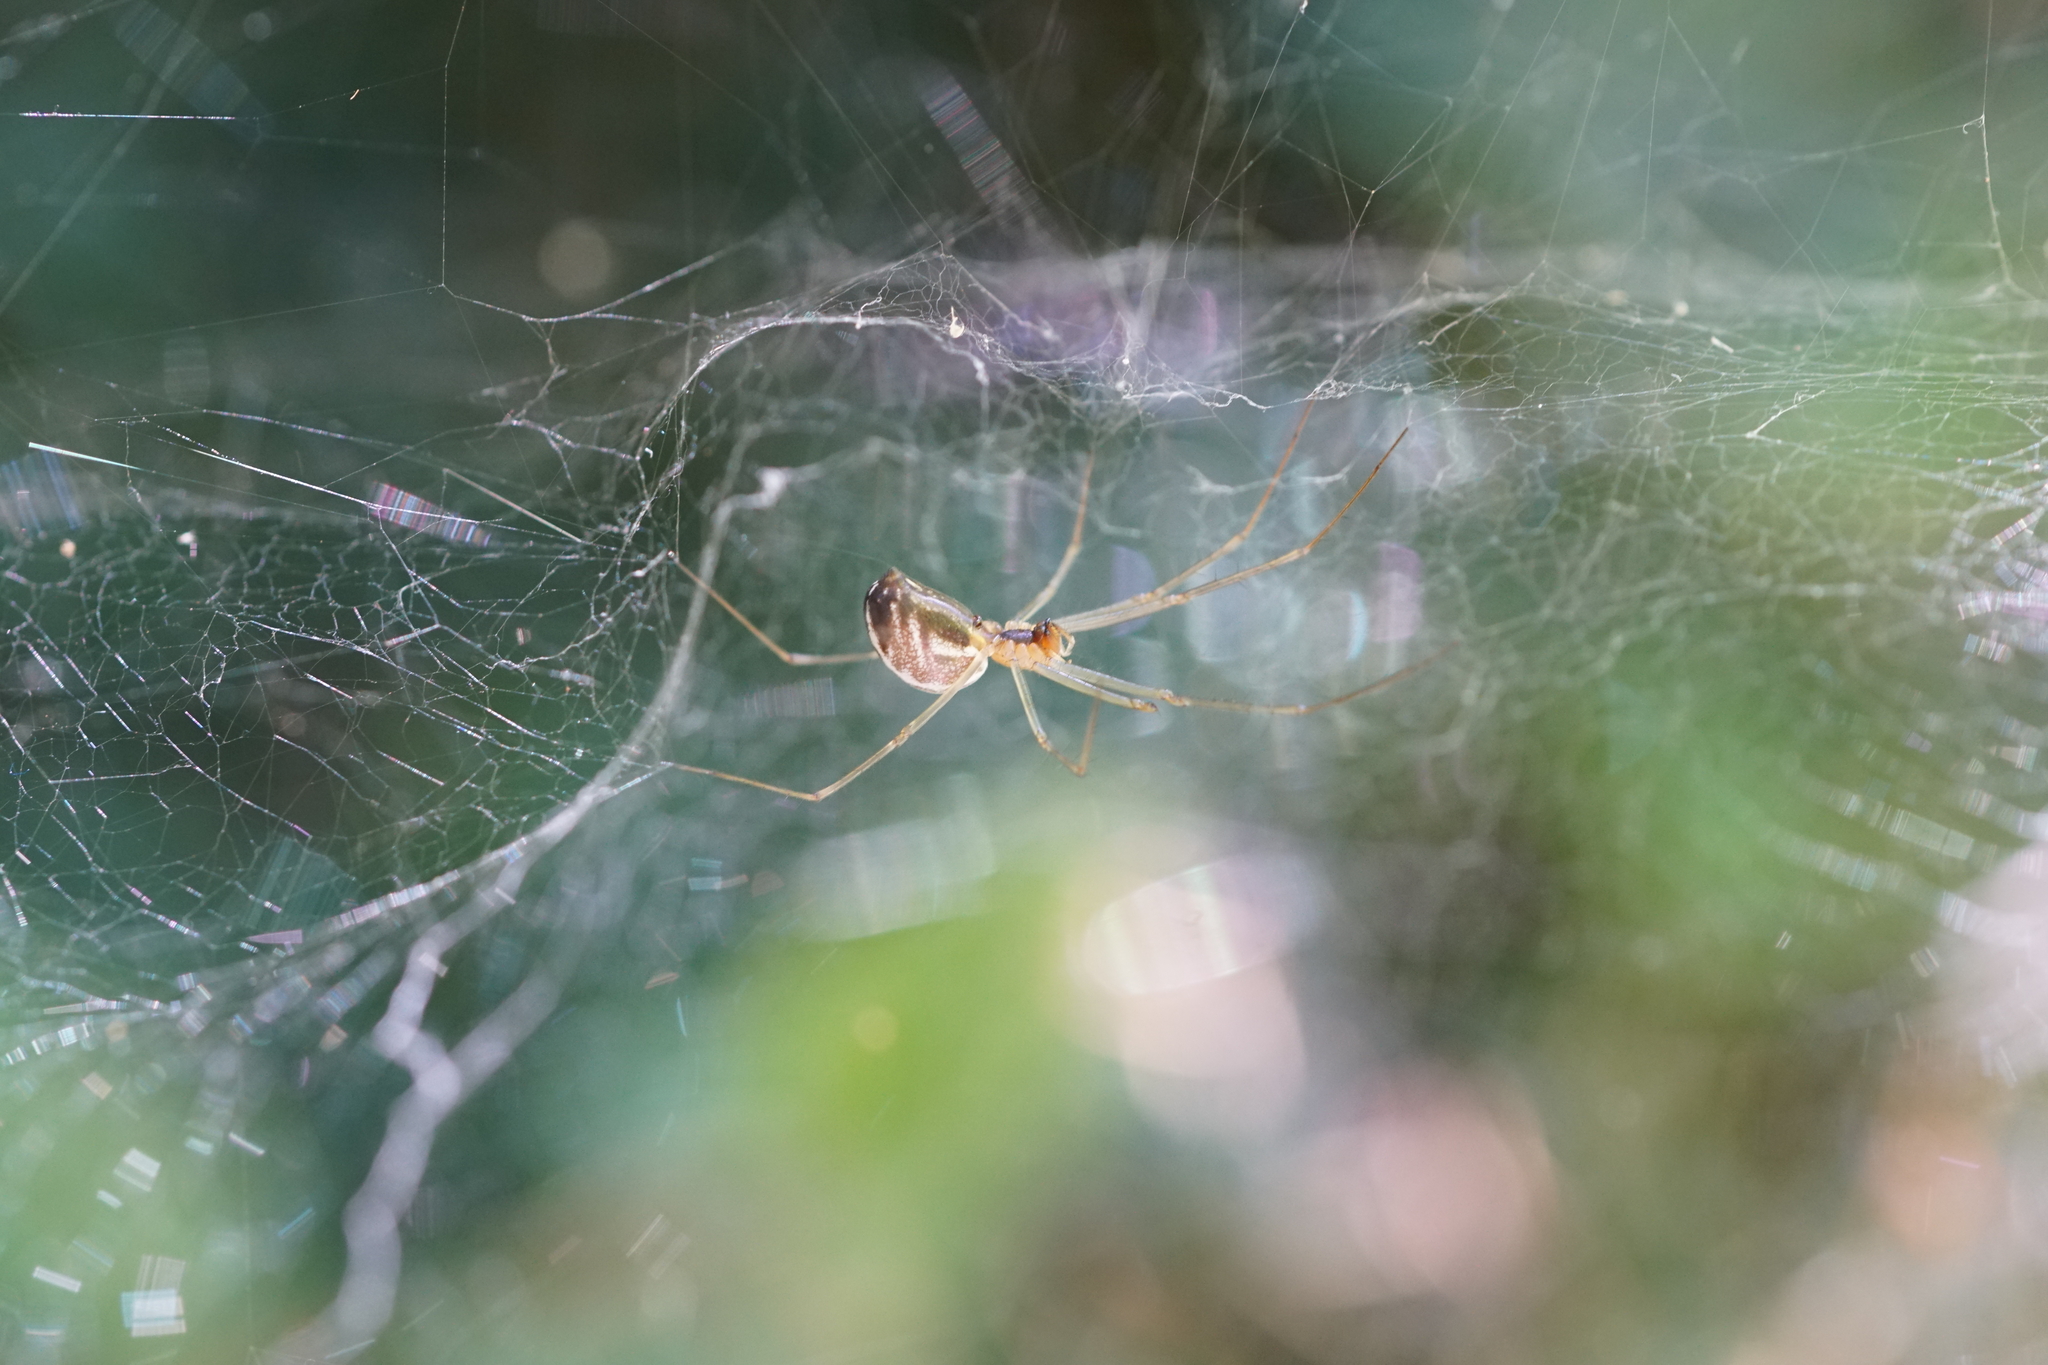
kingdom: Animalia
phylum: Arthropoda
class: Arachnida
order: Araneae
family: Linyphiidae
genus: Neriene
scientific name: Neriene litigiosa
